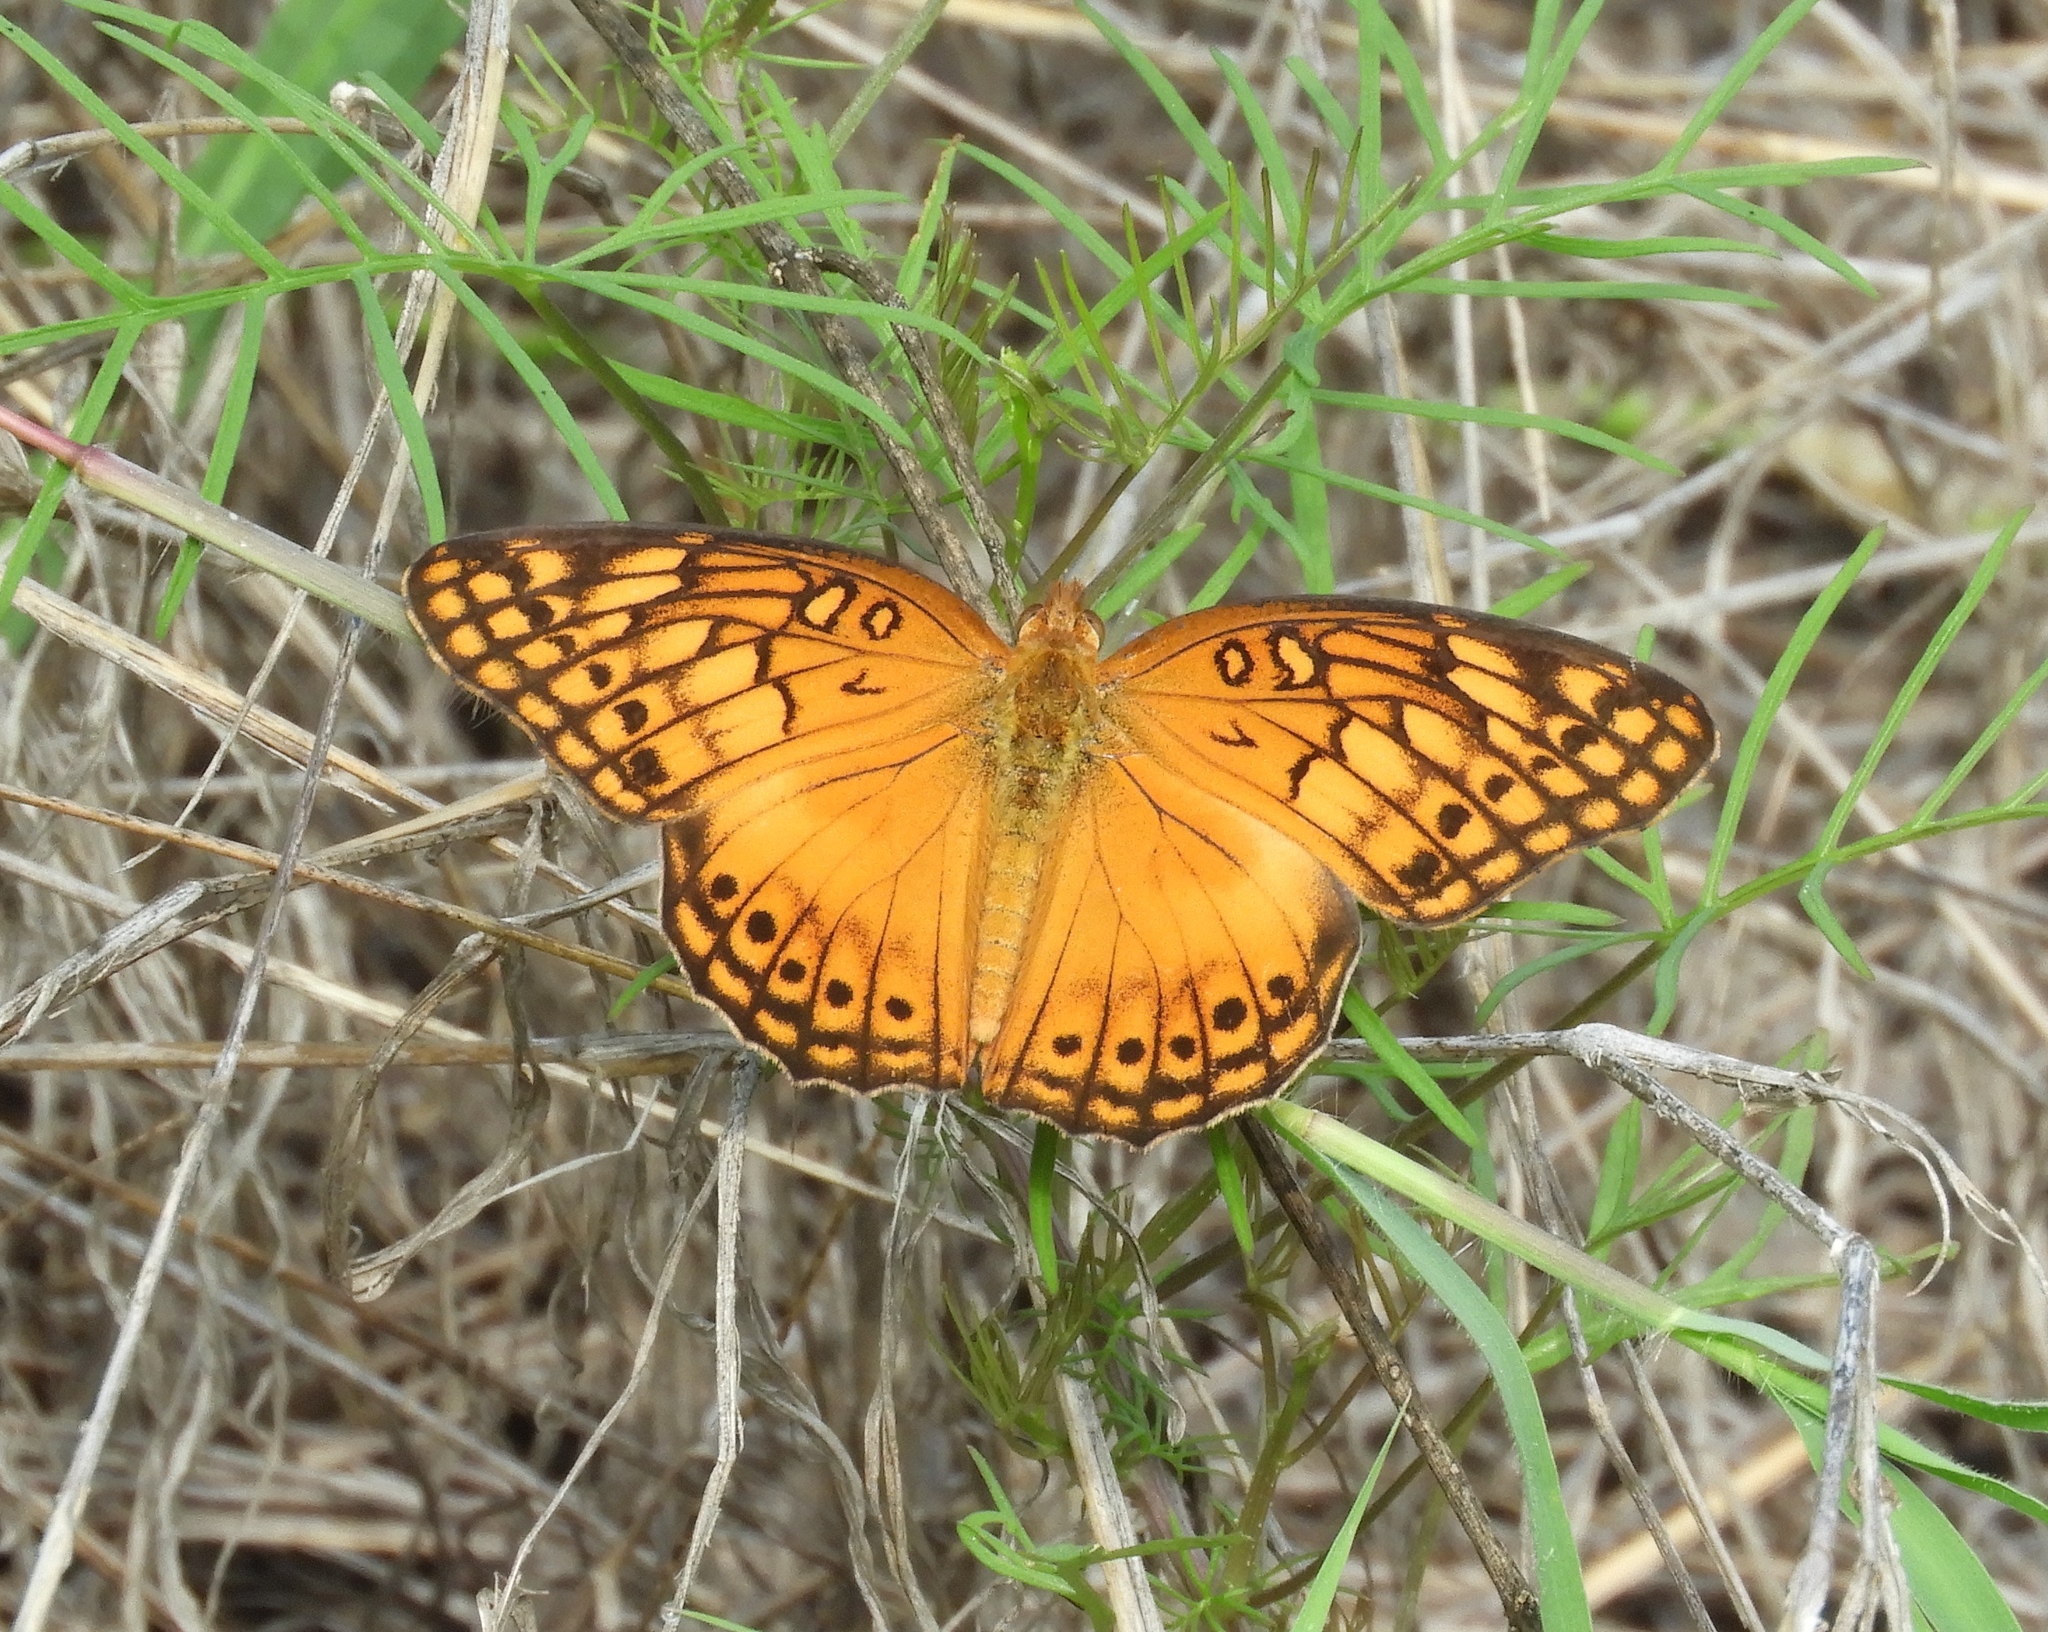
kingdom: Animalia
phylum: Arthropoda
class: Insecta
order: Lepidoptera
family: Nymphalidae
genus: Euptoieta
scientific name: Euptoieta hegesia
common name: Mexican fritillary
